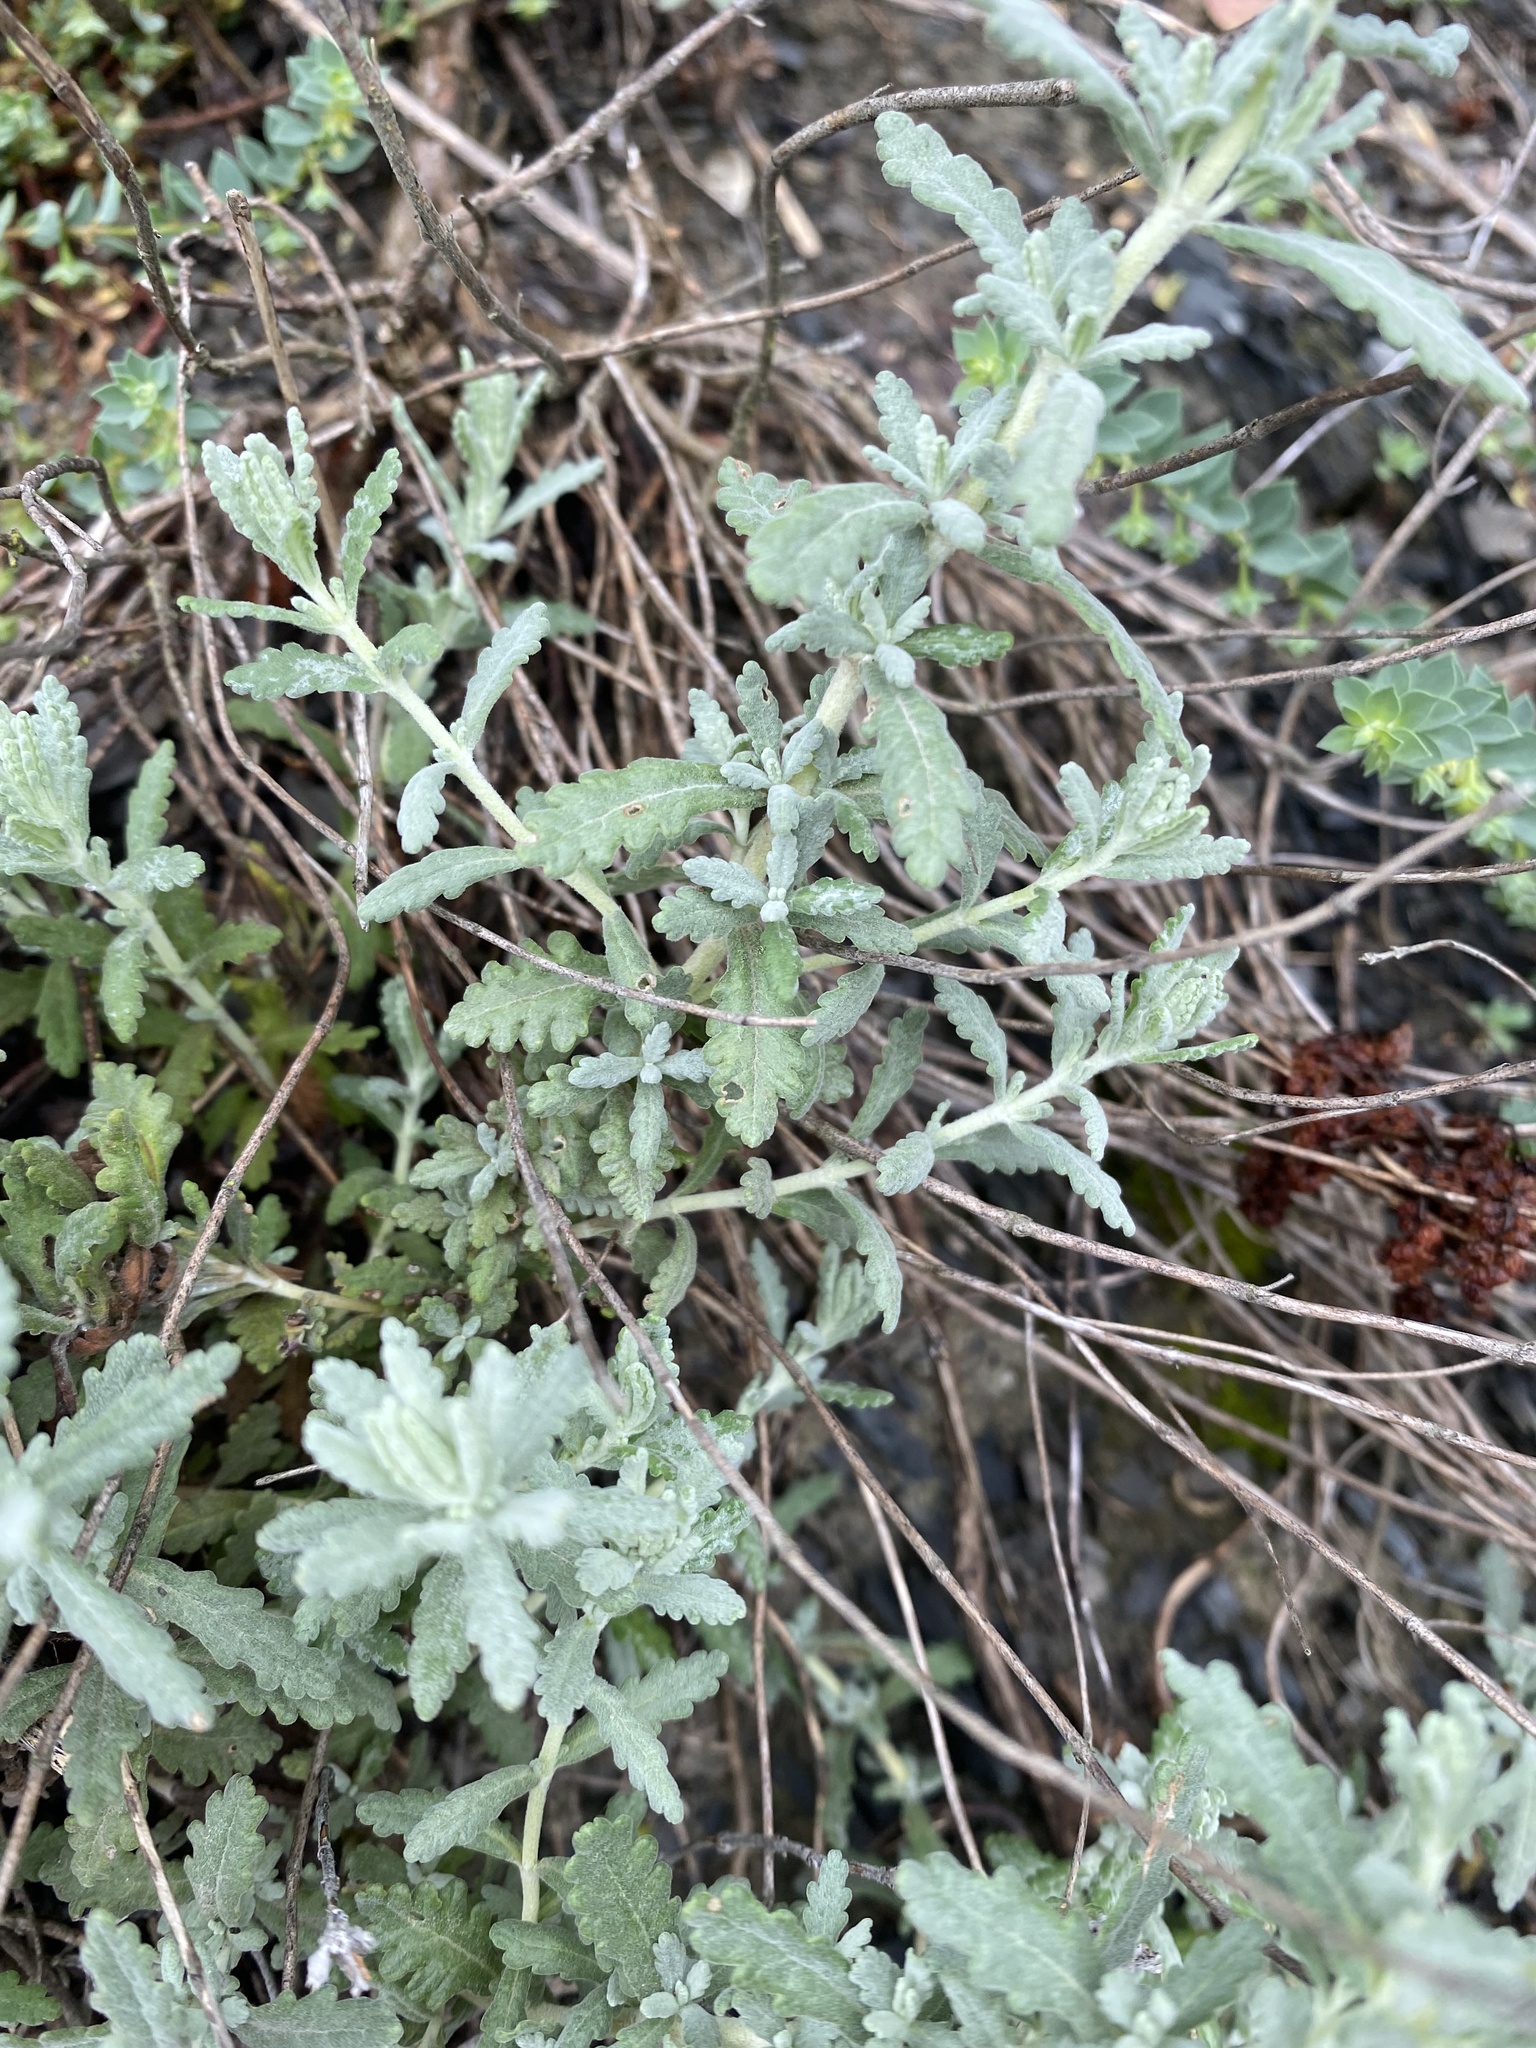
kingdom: Plantae
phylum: Tracheophyta
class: Magnoliopsida
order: Lamiales
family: Lamiaceae
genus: Teucrium
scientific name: Teucrium polium
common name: Poley
